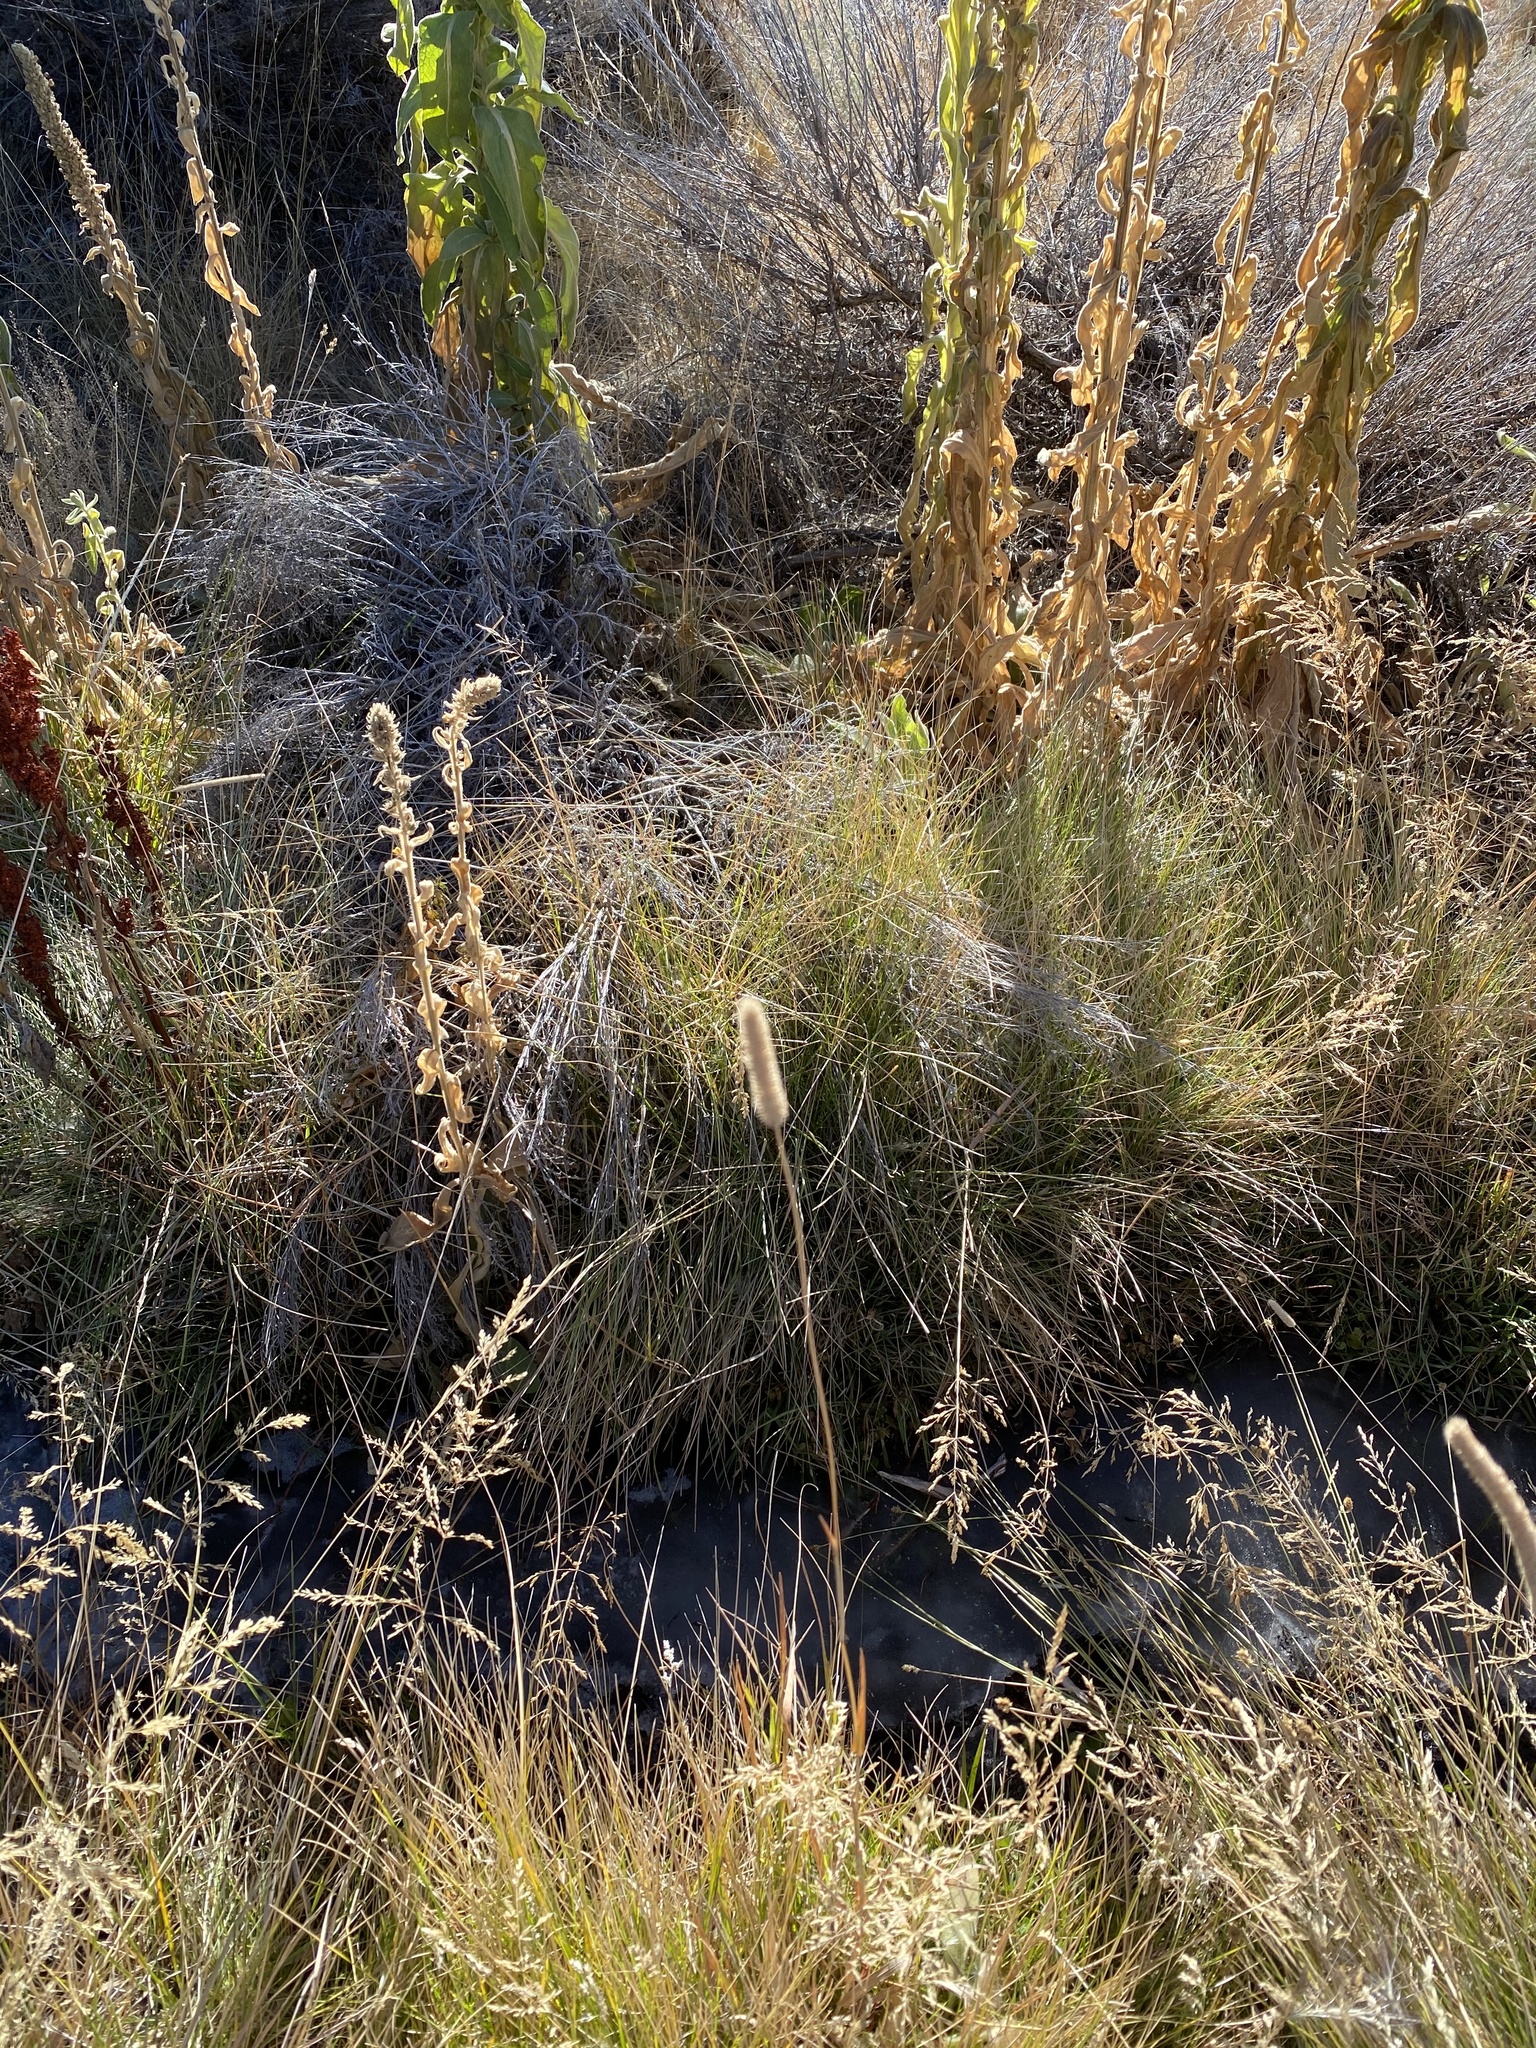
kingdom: Plantae
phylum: Tracheophyta
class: Magnoliopsida
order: Lamiales
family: Scrophulariaceae
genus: Verbascum
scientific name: Verbascum thapsus
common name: Common mullein
